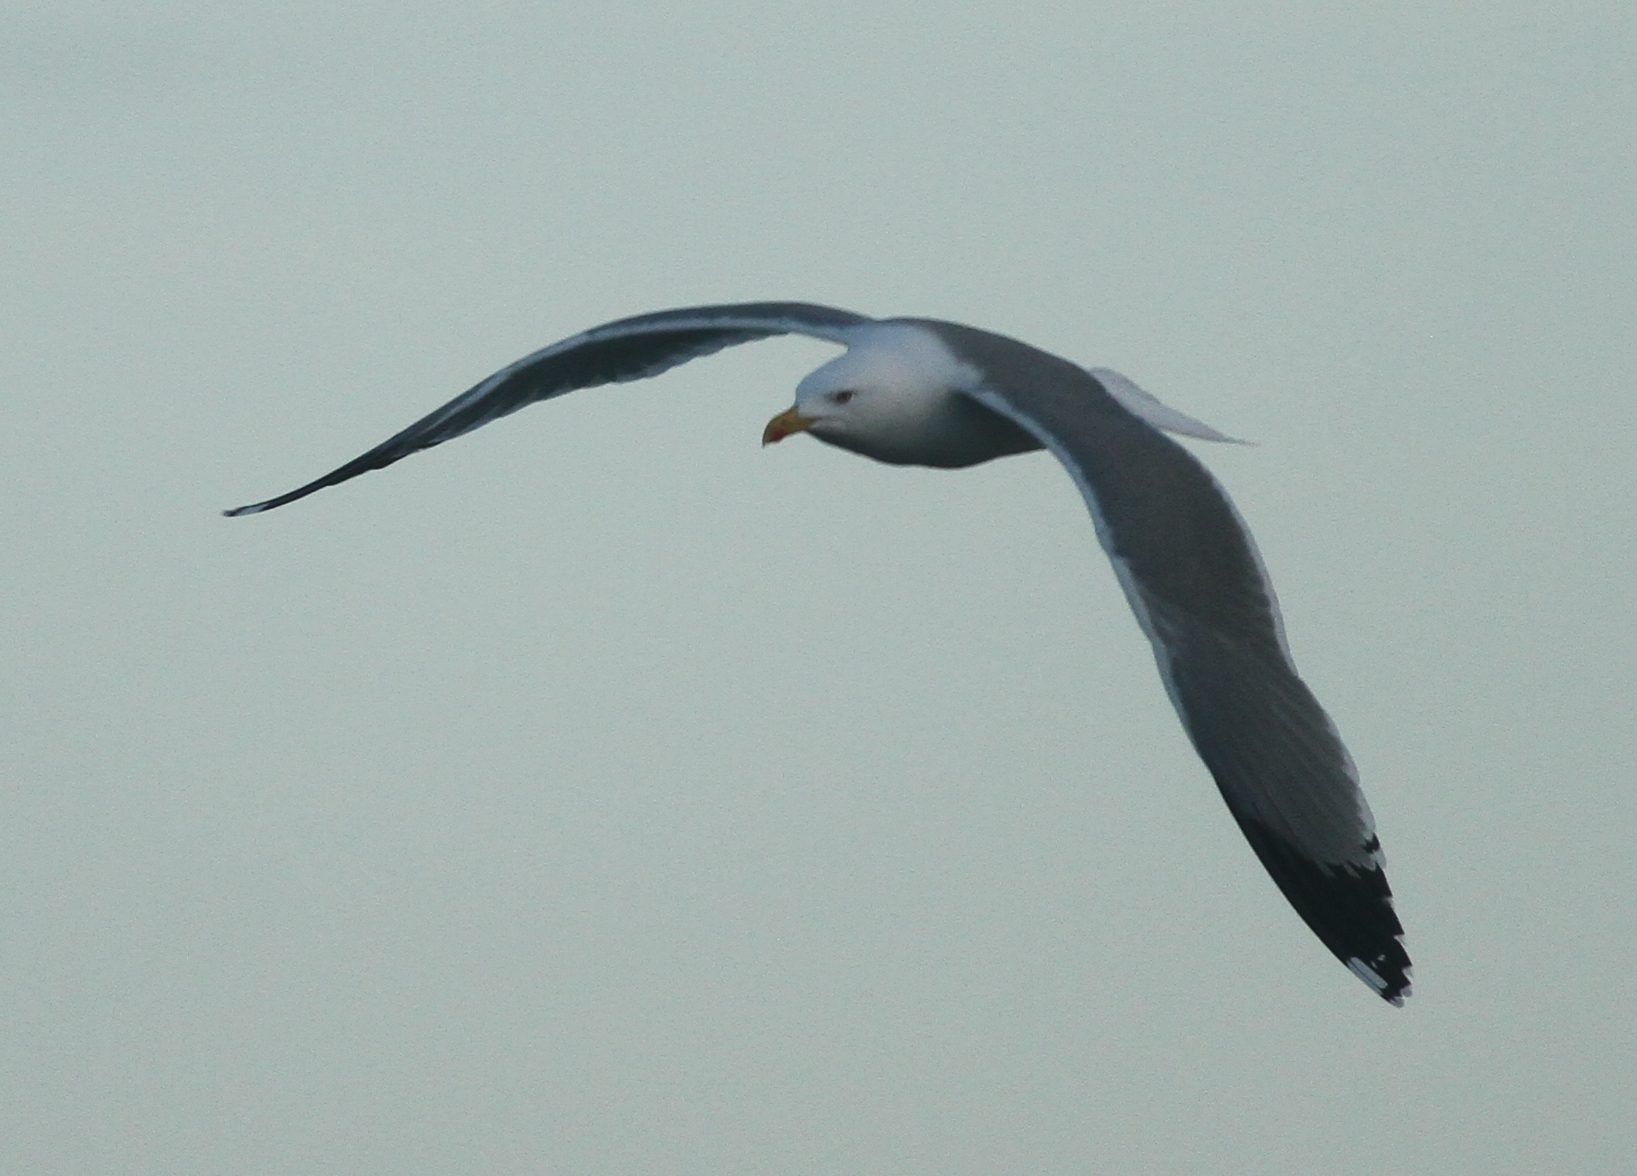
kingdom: Animalia
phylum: Chordata
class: Aves
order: Charadriiformes
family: Laridae
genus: Larus
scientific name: Larus michahellis
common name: Yellow-legged gull
